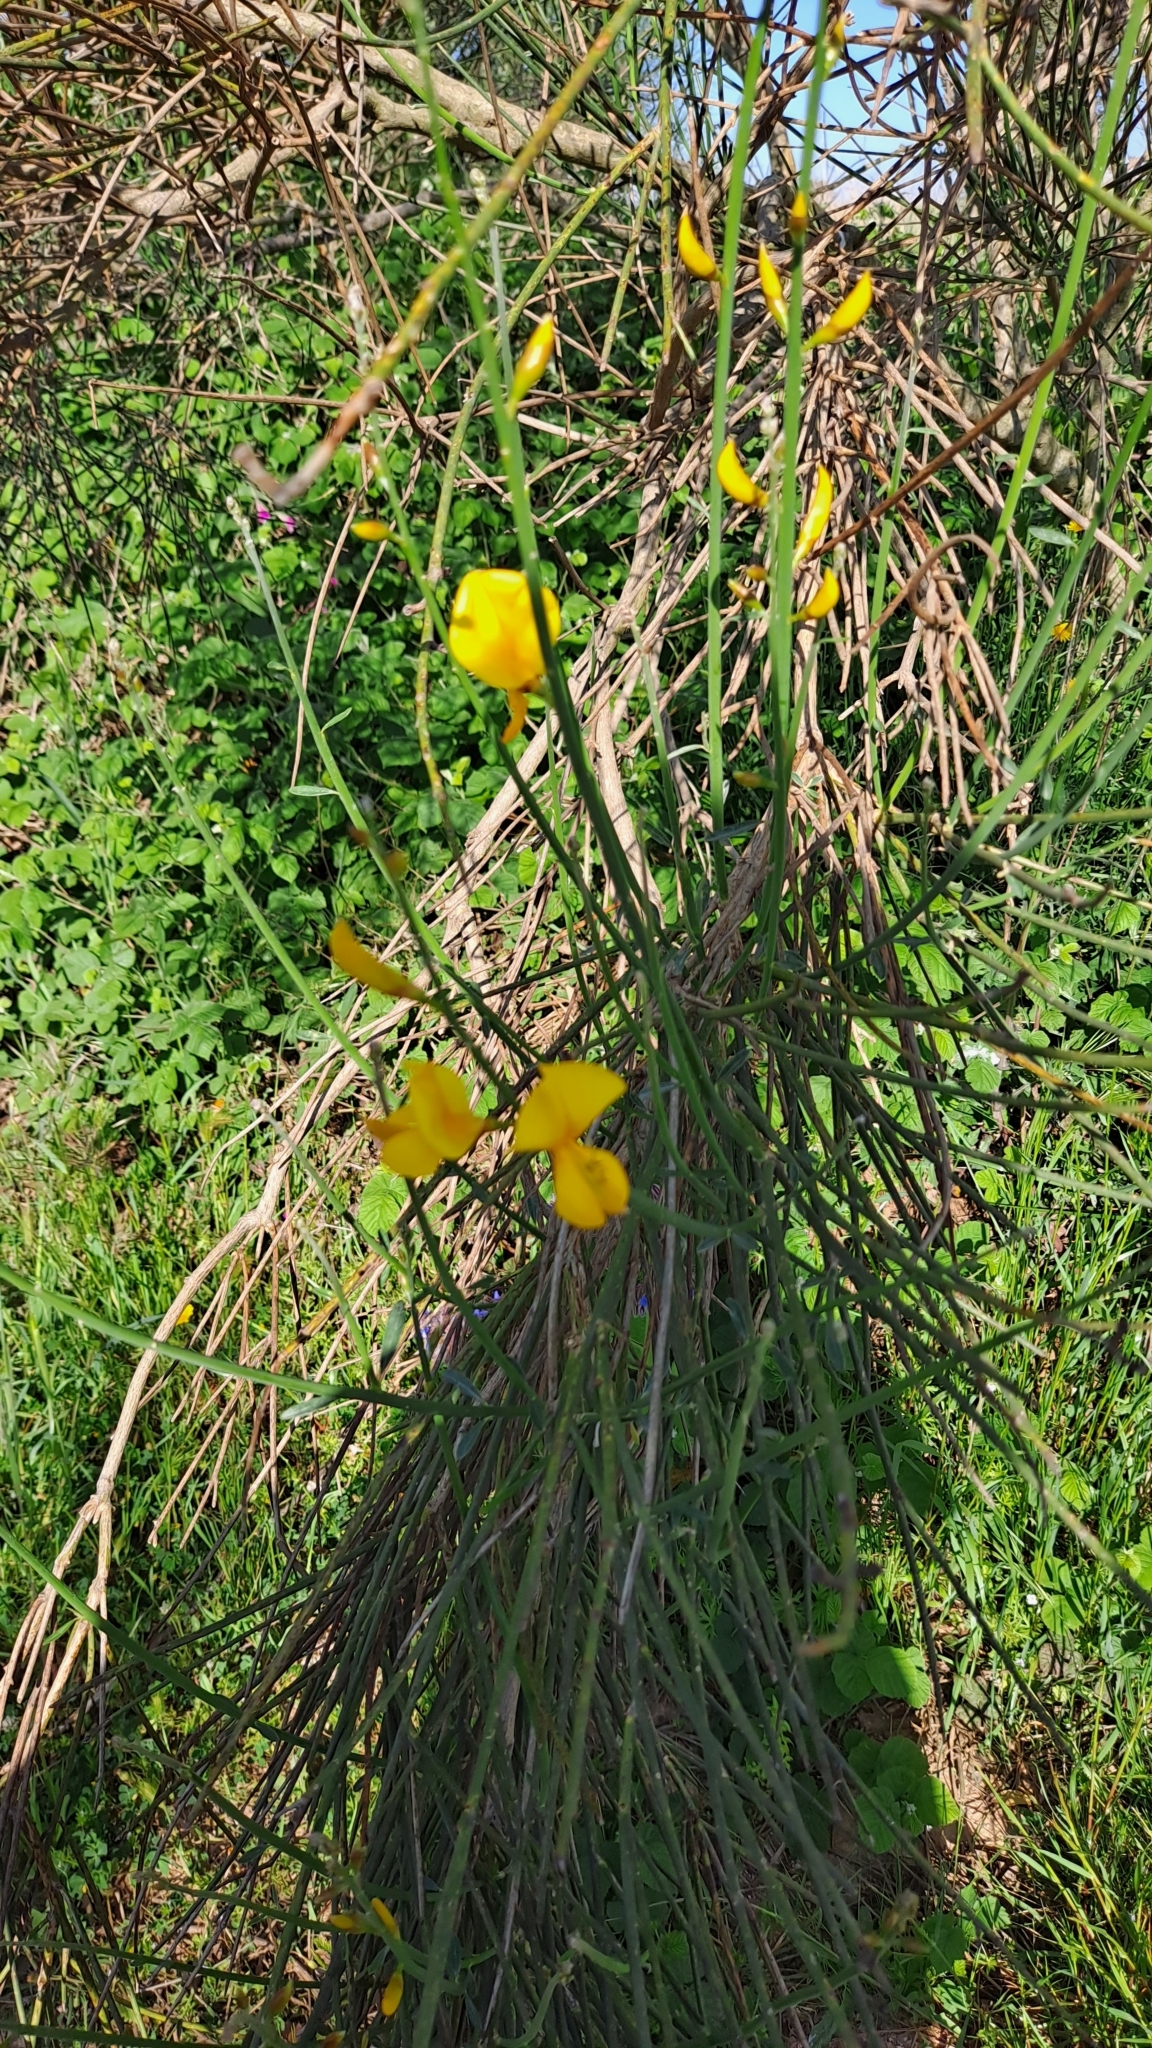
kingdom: Plantae
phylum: Tracheophyta
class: Magnoliopsida
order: Fabales
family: Fabaceae
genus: Spartium
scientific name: Spartium junceum
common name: Spanish broom
